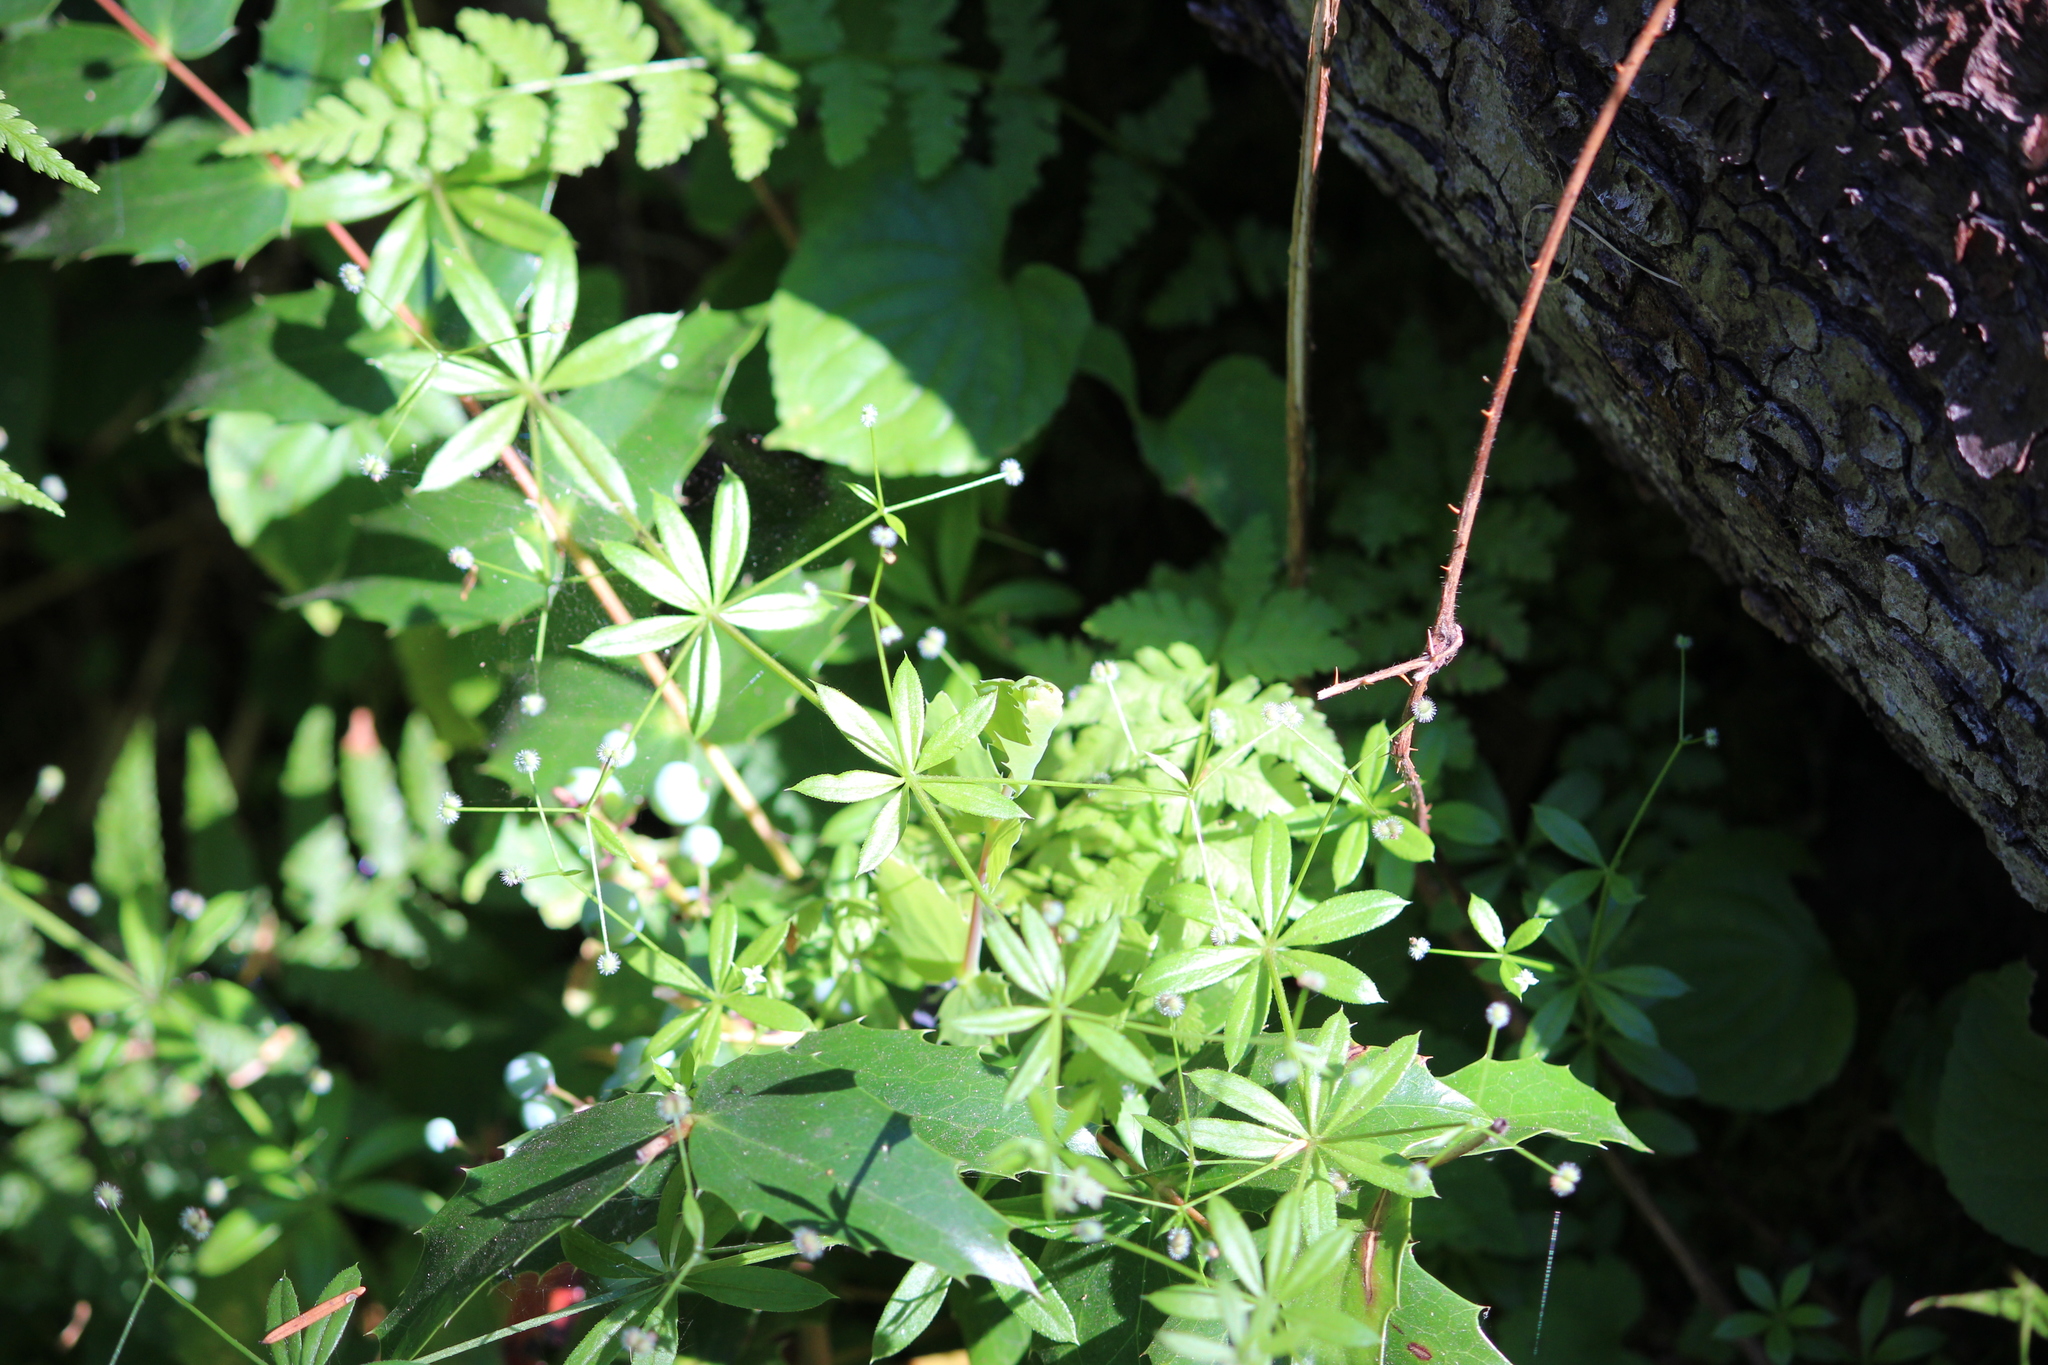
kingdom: Plantae
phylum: Tracheophyta
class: Magnoliopsida
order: Gentianales
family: Rubiaceae
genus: Galium
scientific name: Galium triflorum
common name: Fragrant bedstraw
